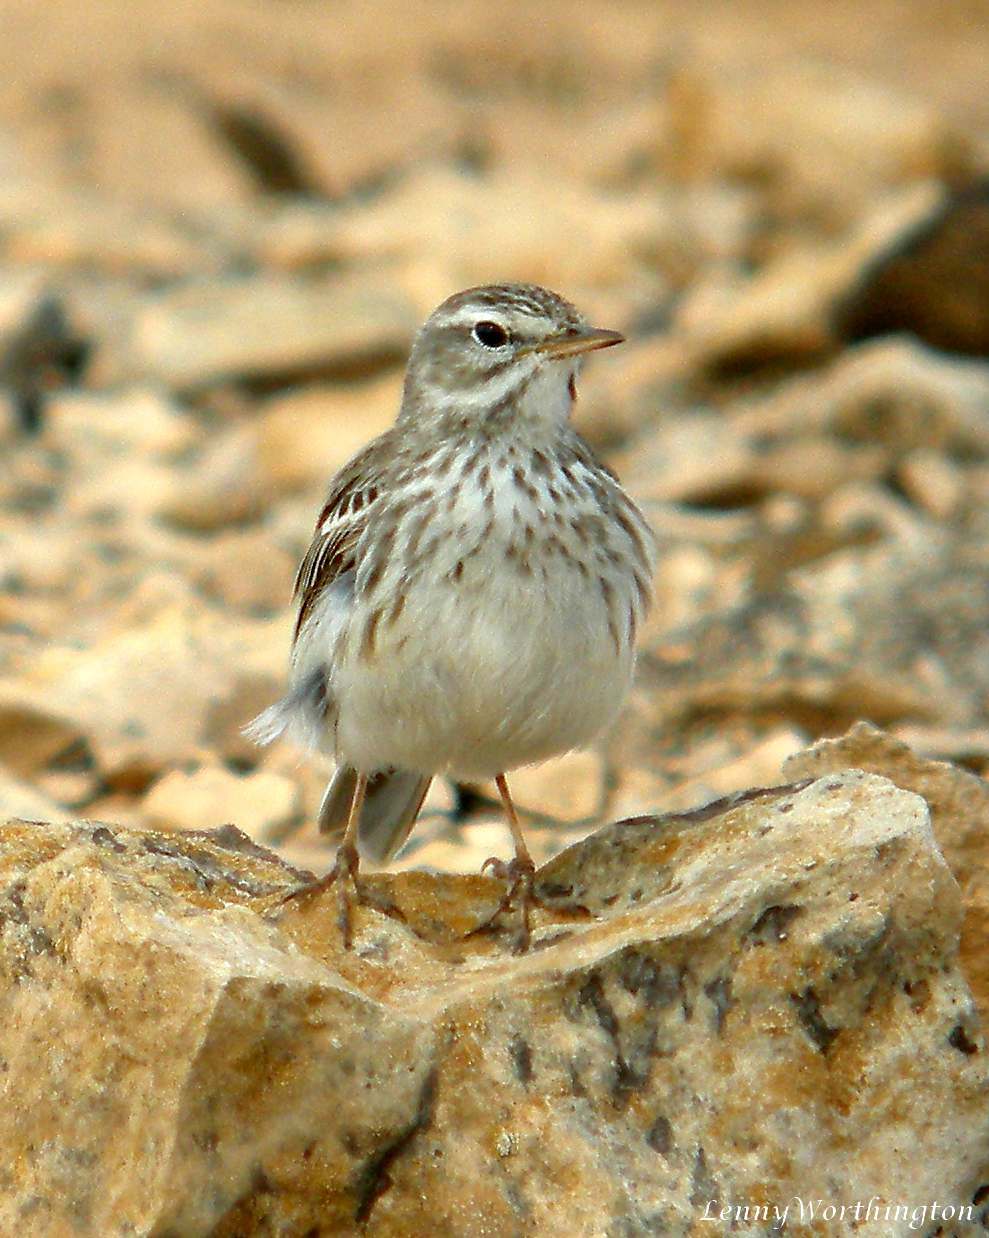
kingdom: Animalia
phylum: Chordata
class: Aves
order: Passeriformes
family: Motacillidae
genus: Anthus
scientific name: Anthus berthelotii
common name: Berthelot's pipit
